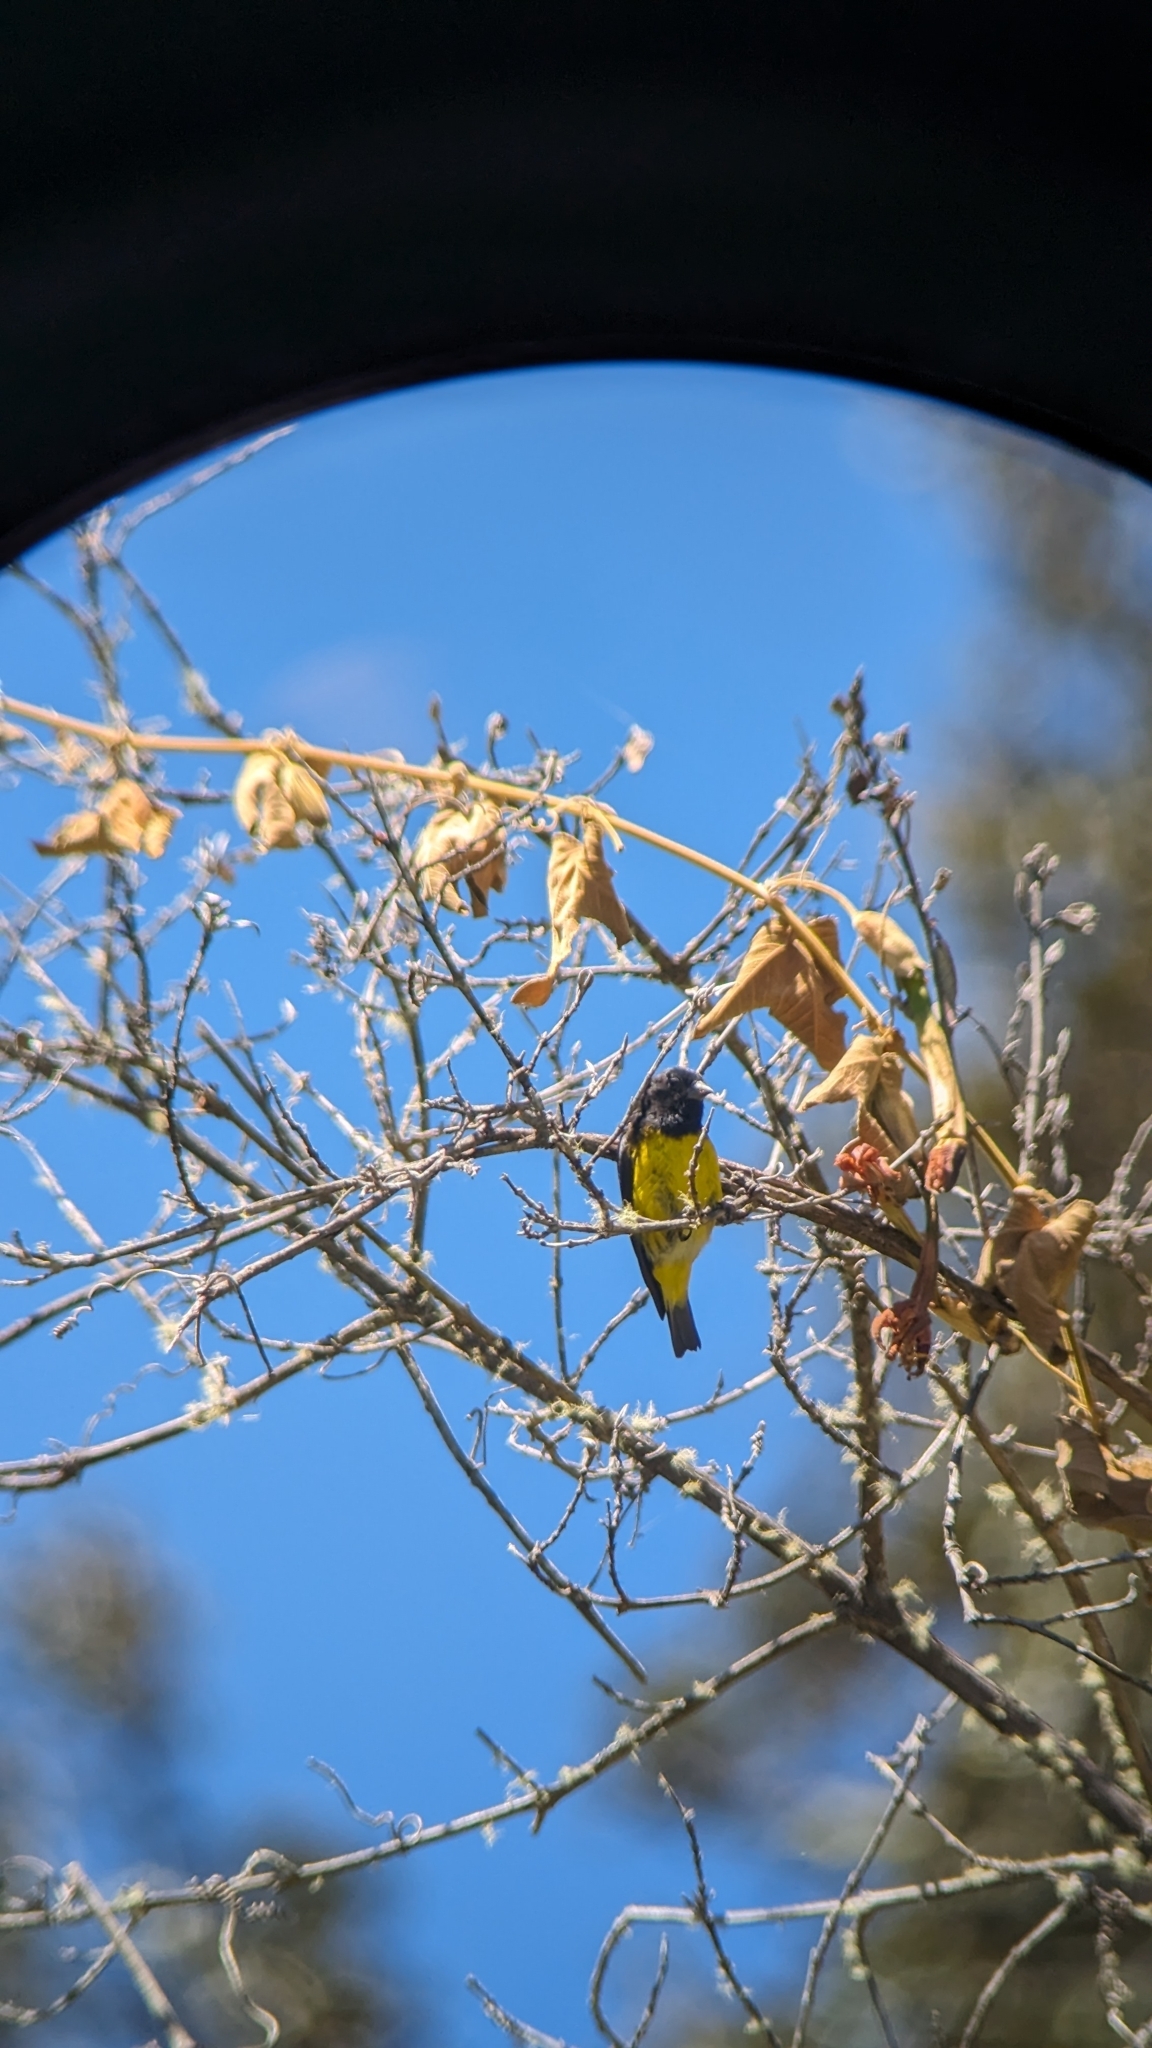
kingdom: Animalia
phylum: Chordata
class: Aves
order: Passeriformes
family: Fringillidae
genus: Spinus
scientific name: Spinus xanthogastrus
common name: Yellow-bellied siskin
